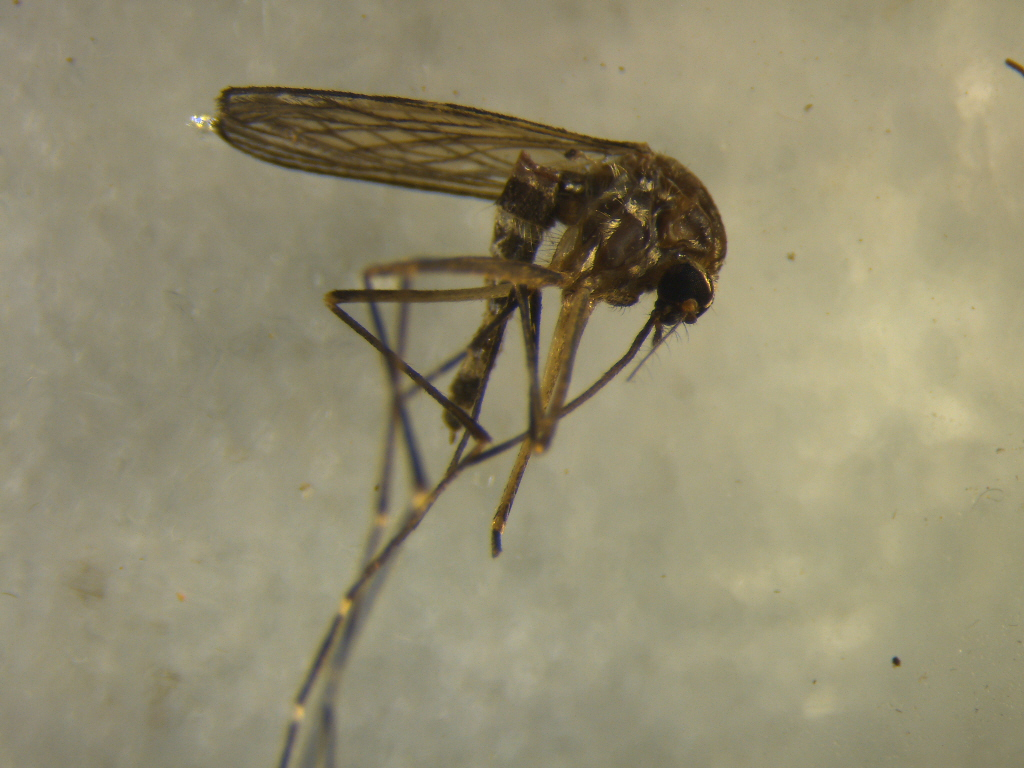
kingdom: Animalia
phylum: Arthropoda
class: Insecta
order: Diptera
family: Culicidae
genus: Aedes
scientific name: Aedes subalbirostris
